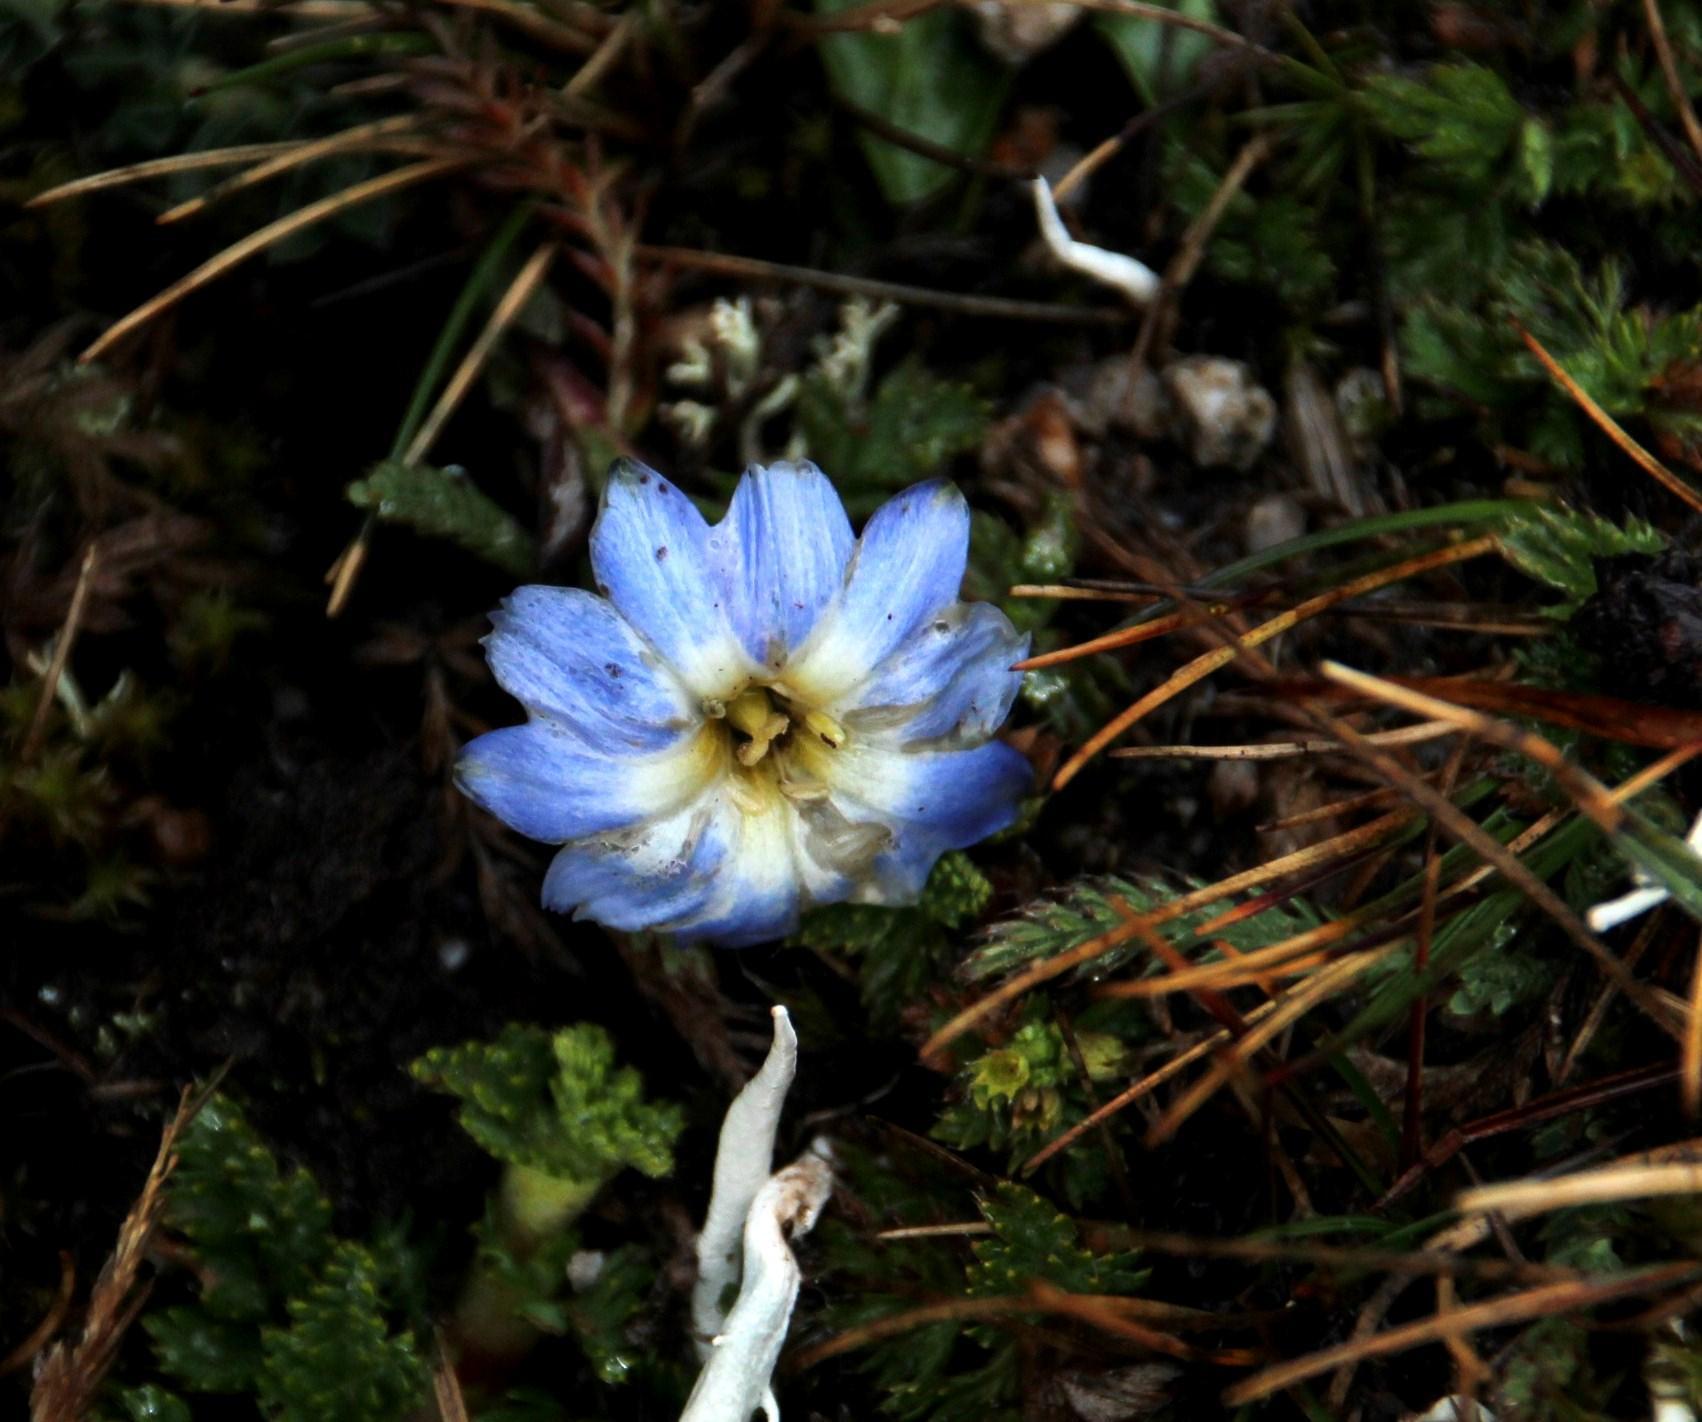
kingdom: Plantae
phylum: Tracheophyta
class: Magnoliopsida
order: Gentianales
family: Gentianaceae
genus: Gentiana
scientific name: Gentiana sedifolia
